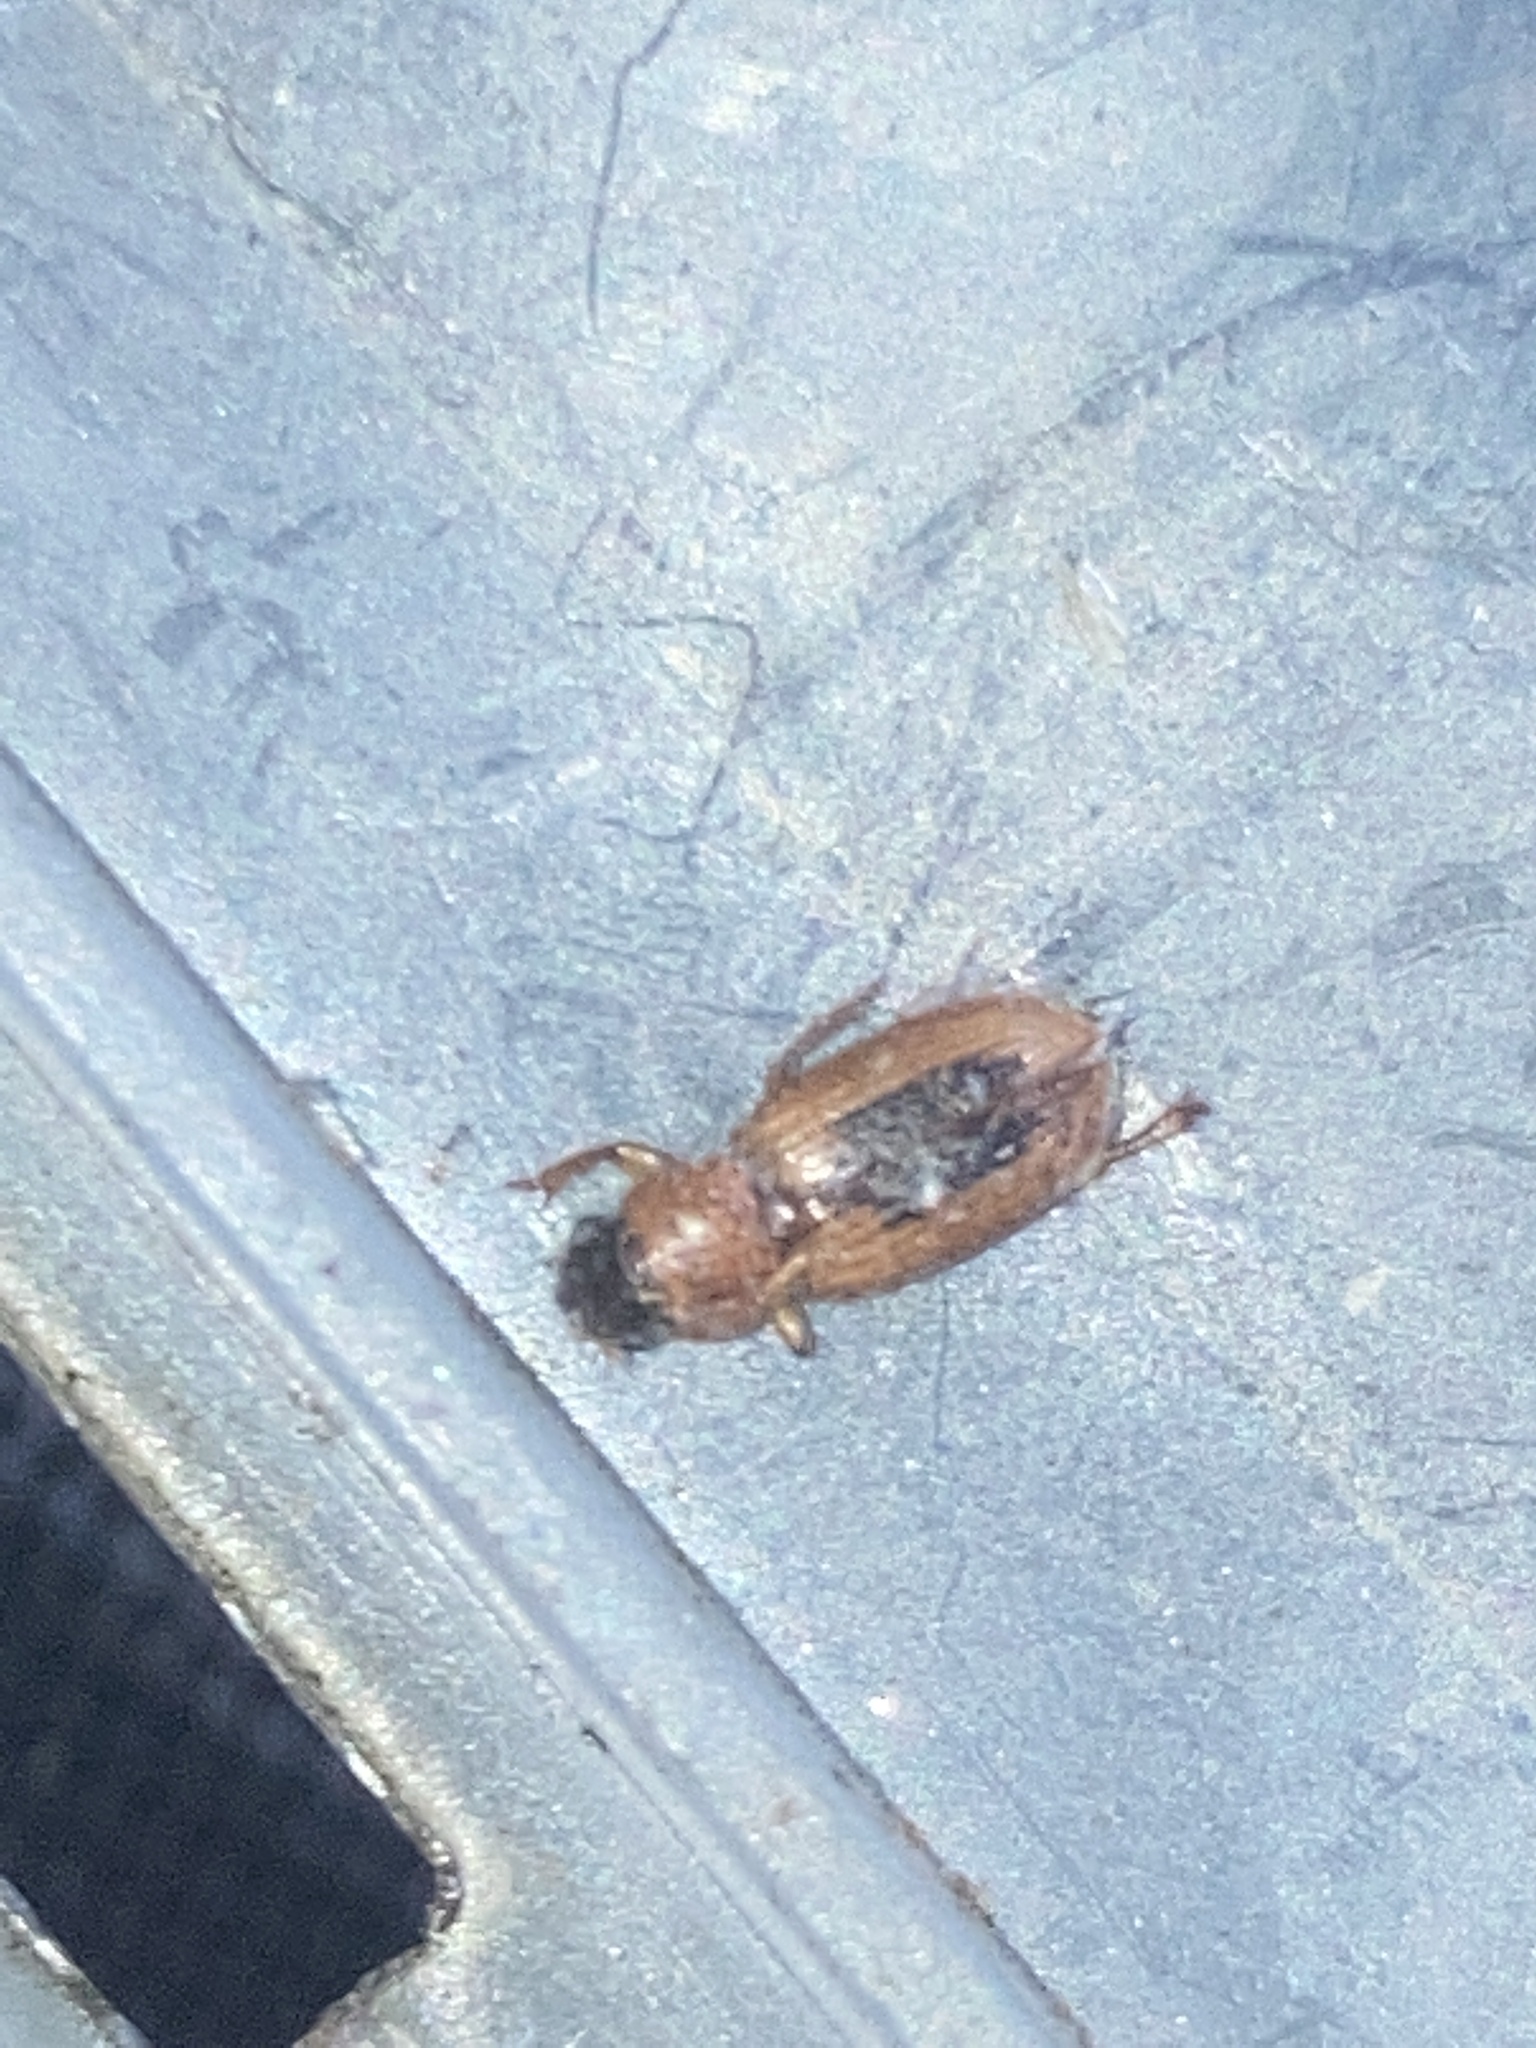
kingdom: Animalia
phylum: Arthropoda
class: Insecta
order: Coleoptera
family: Carabidae
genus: Stenolophus
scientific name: Stenolophus dissimilis
